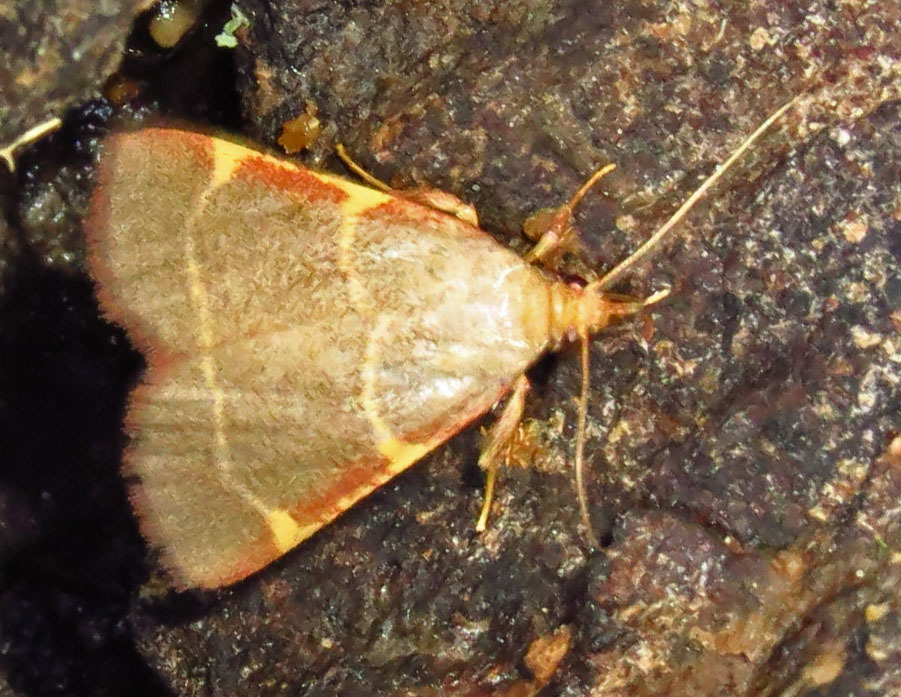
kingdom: Animalia
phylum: Arthropoda
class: Insecta
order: Lepidoptera
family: Pyralidae
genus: Hypsopygia
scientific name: Hypsopygia binodulalis
